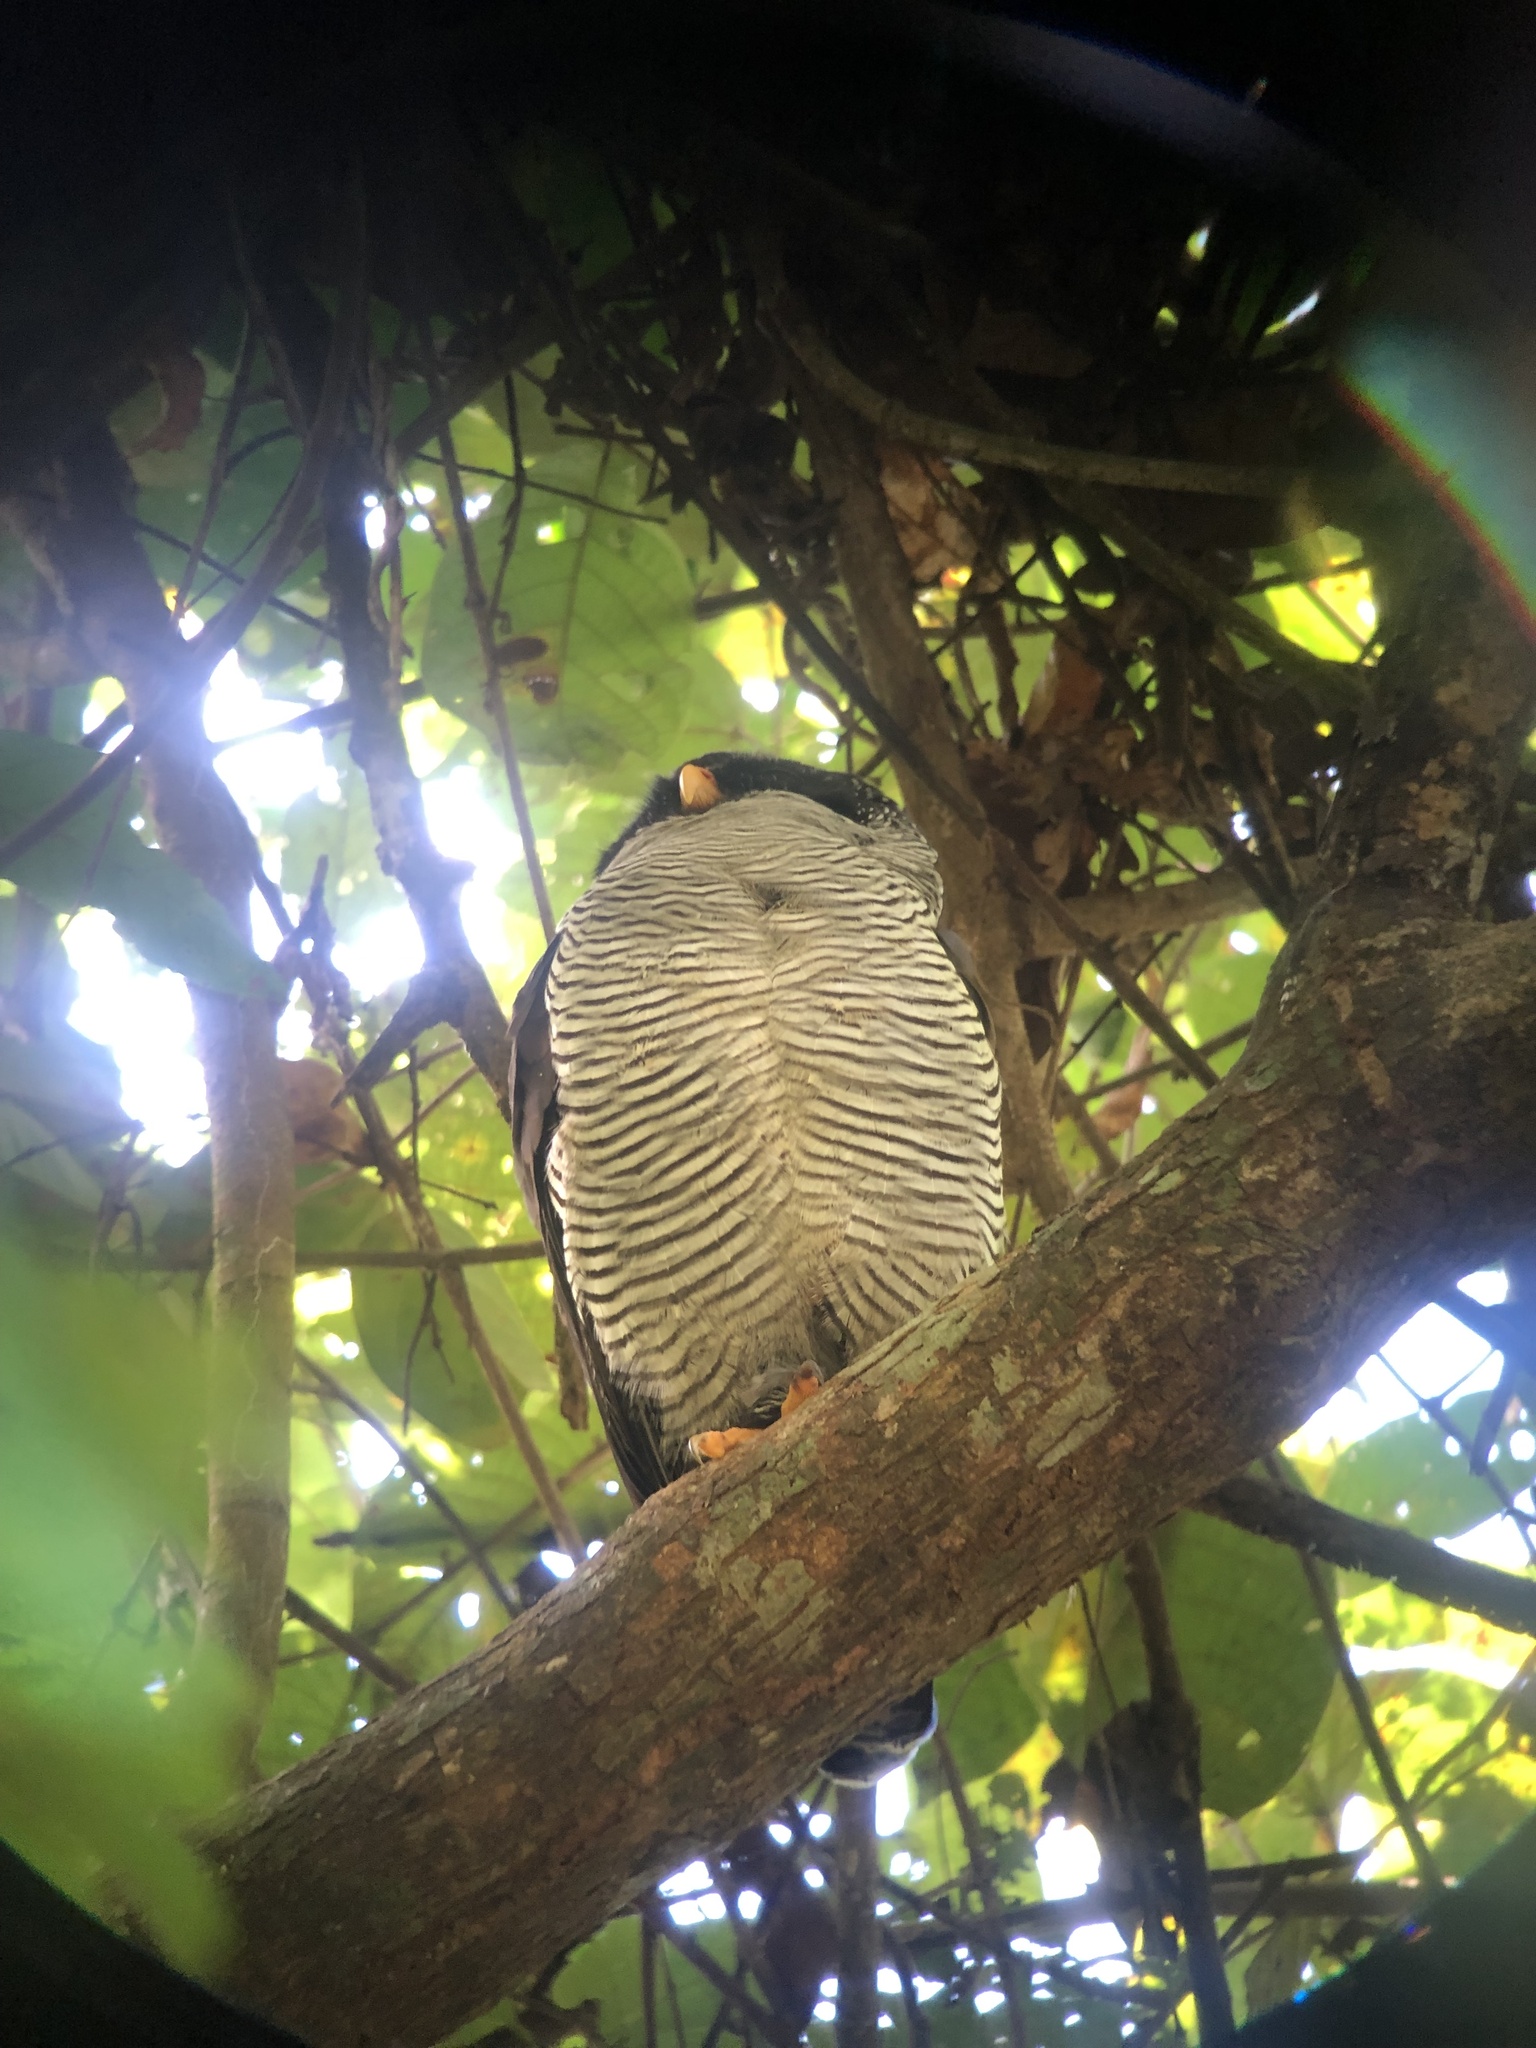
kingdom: Animalia
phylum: Chordata
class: Aves
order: Strigiformes
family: Strigidae
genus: Strix
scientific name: Strix nigrolineata
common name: Black-and-white owl
